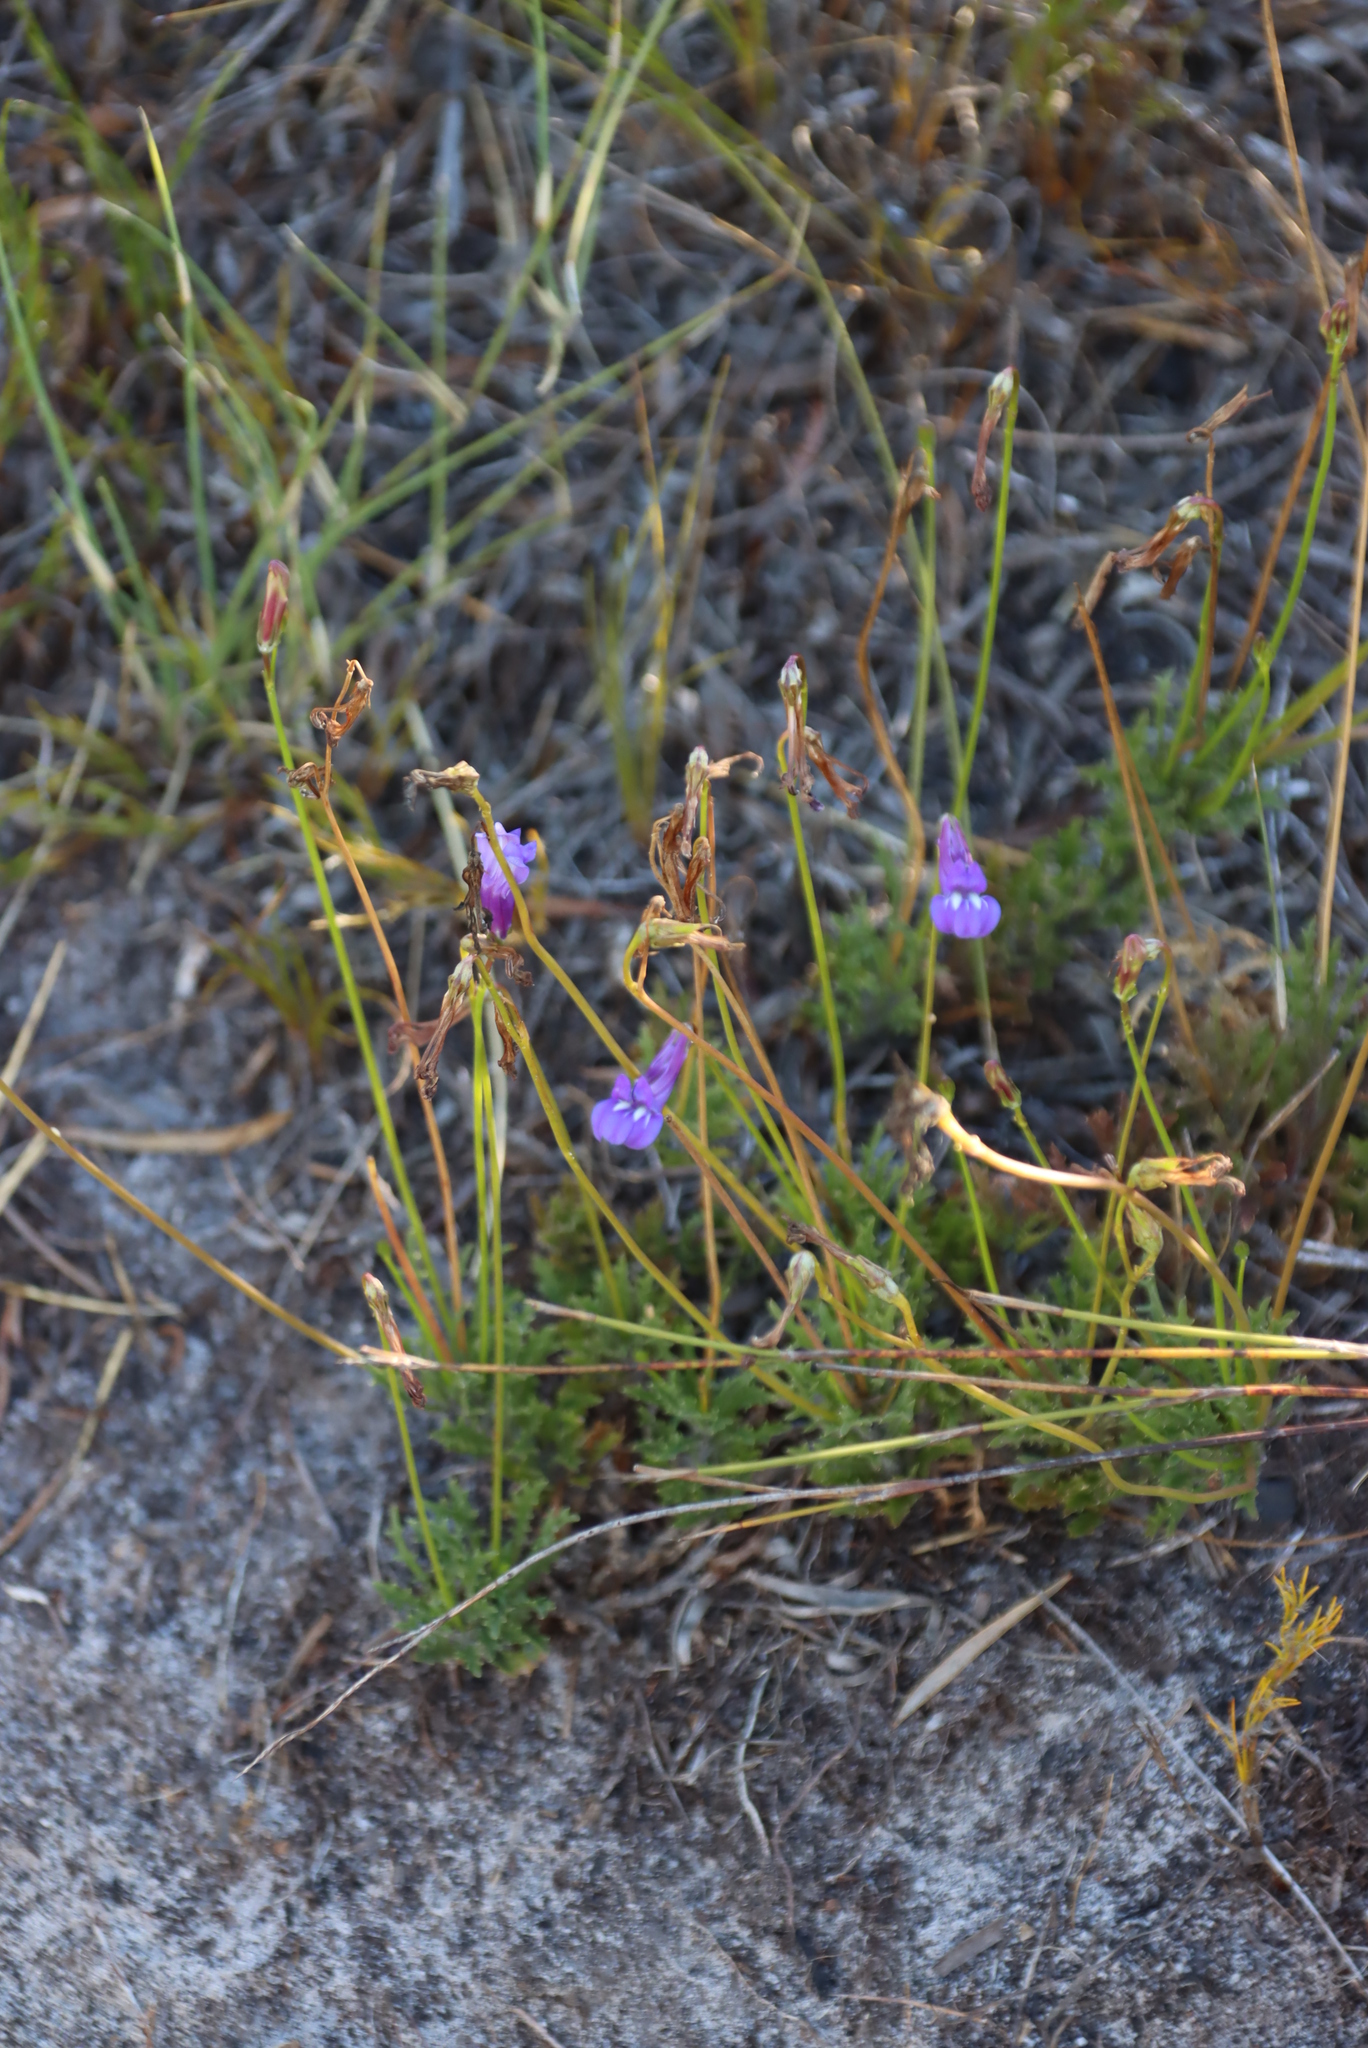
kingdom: Plantae
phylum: Tracheophyta
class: Magnoliopsida
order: Asterales
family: Campanulaceae
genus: Lobelia
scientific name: Lobelia coronopifolia
